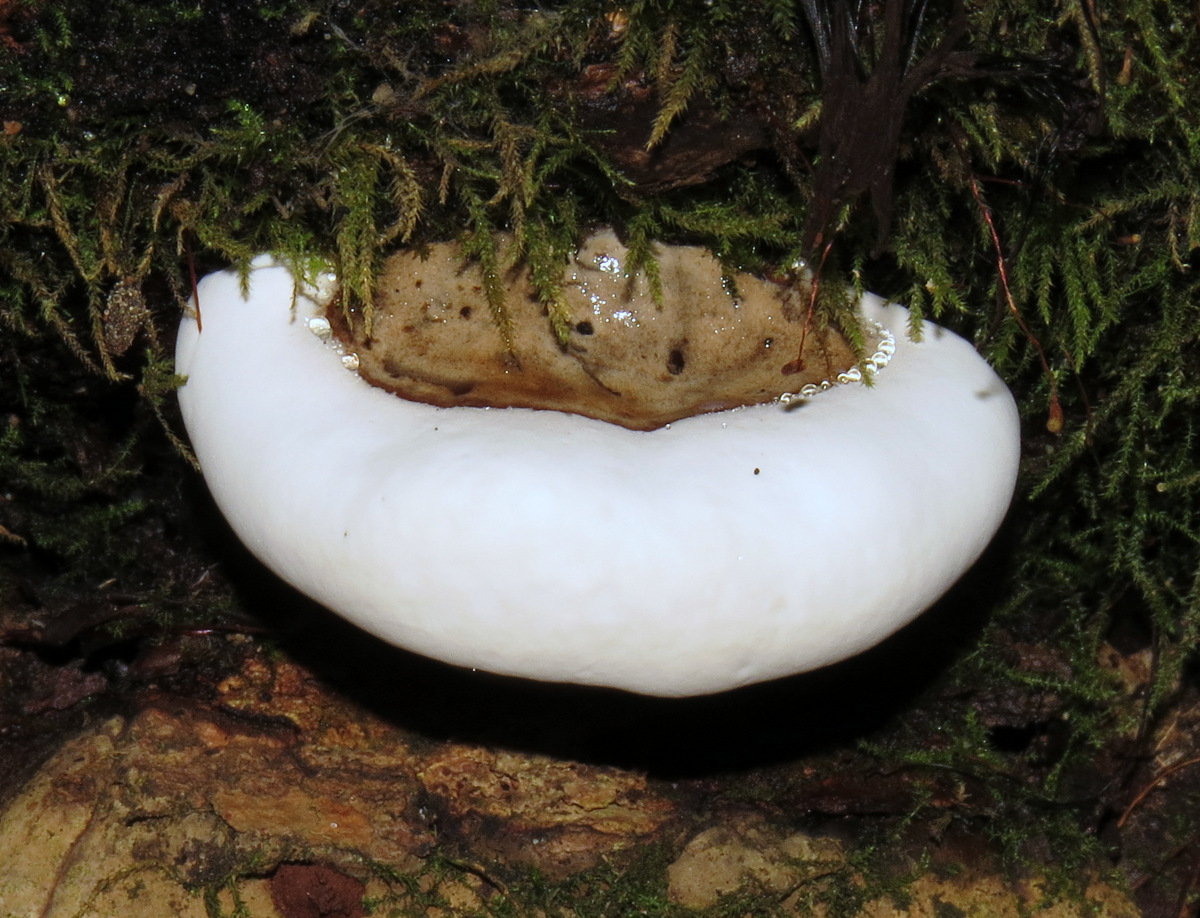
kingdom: Fungi
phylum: Basidiomycota
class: Agaricomycetes
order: Polyporales
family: Polyporaceae
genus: Ganoderma
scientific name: Ganoderma applanatum
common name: Artist's bracket
